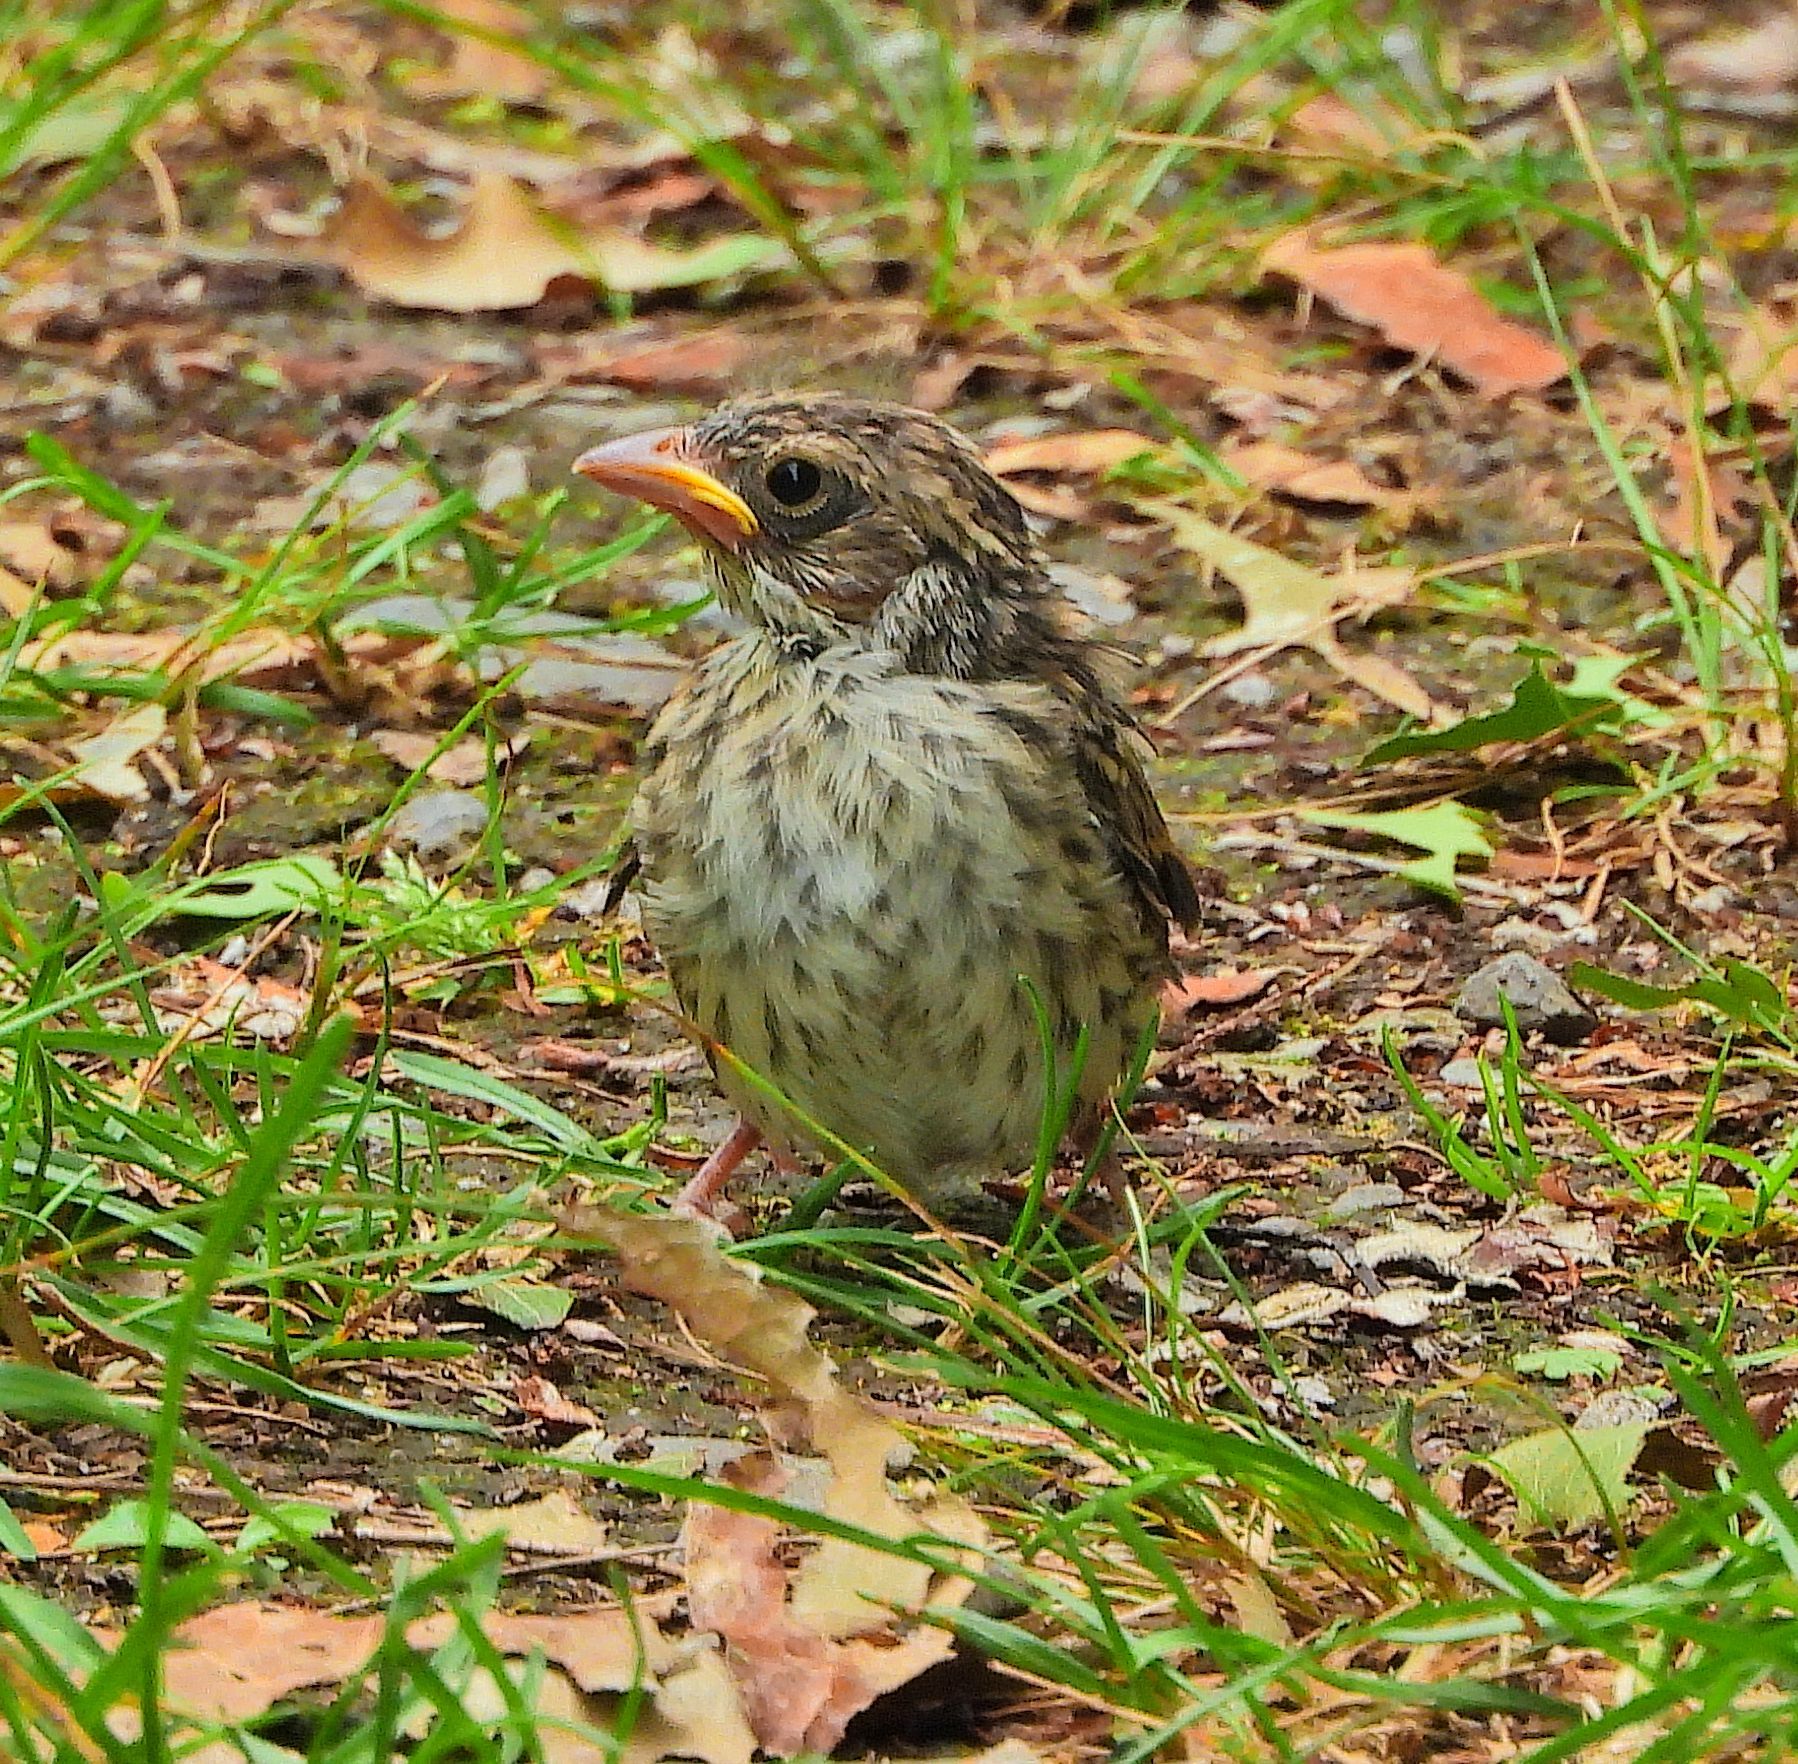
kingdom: Animalia
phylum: Chordata
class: Aves
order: Passeriformes
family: Passerellidae
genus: Spizella
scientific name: Spizella passerina
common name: Chipping sparrow
